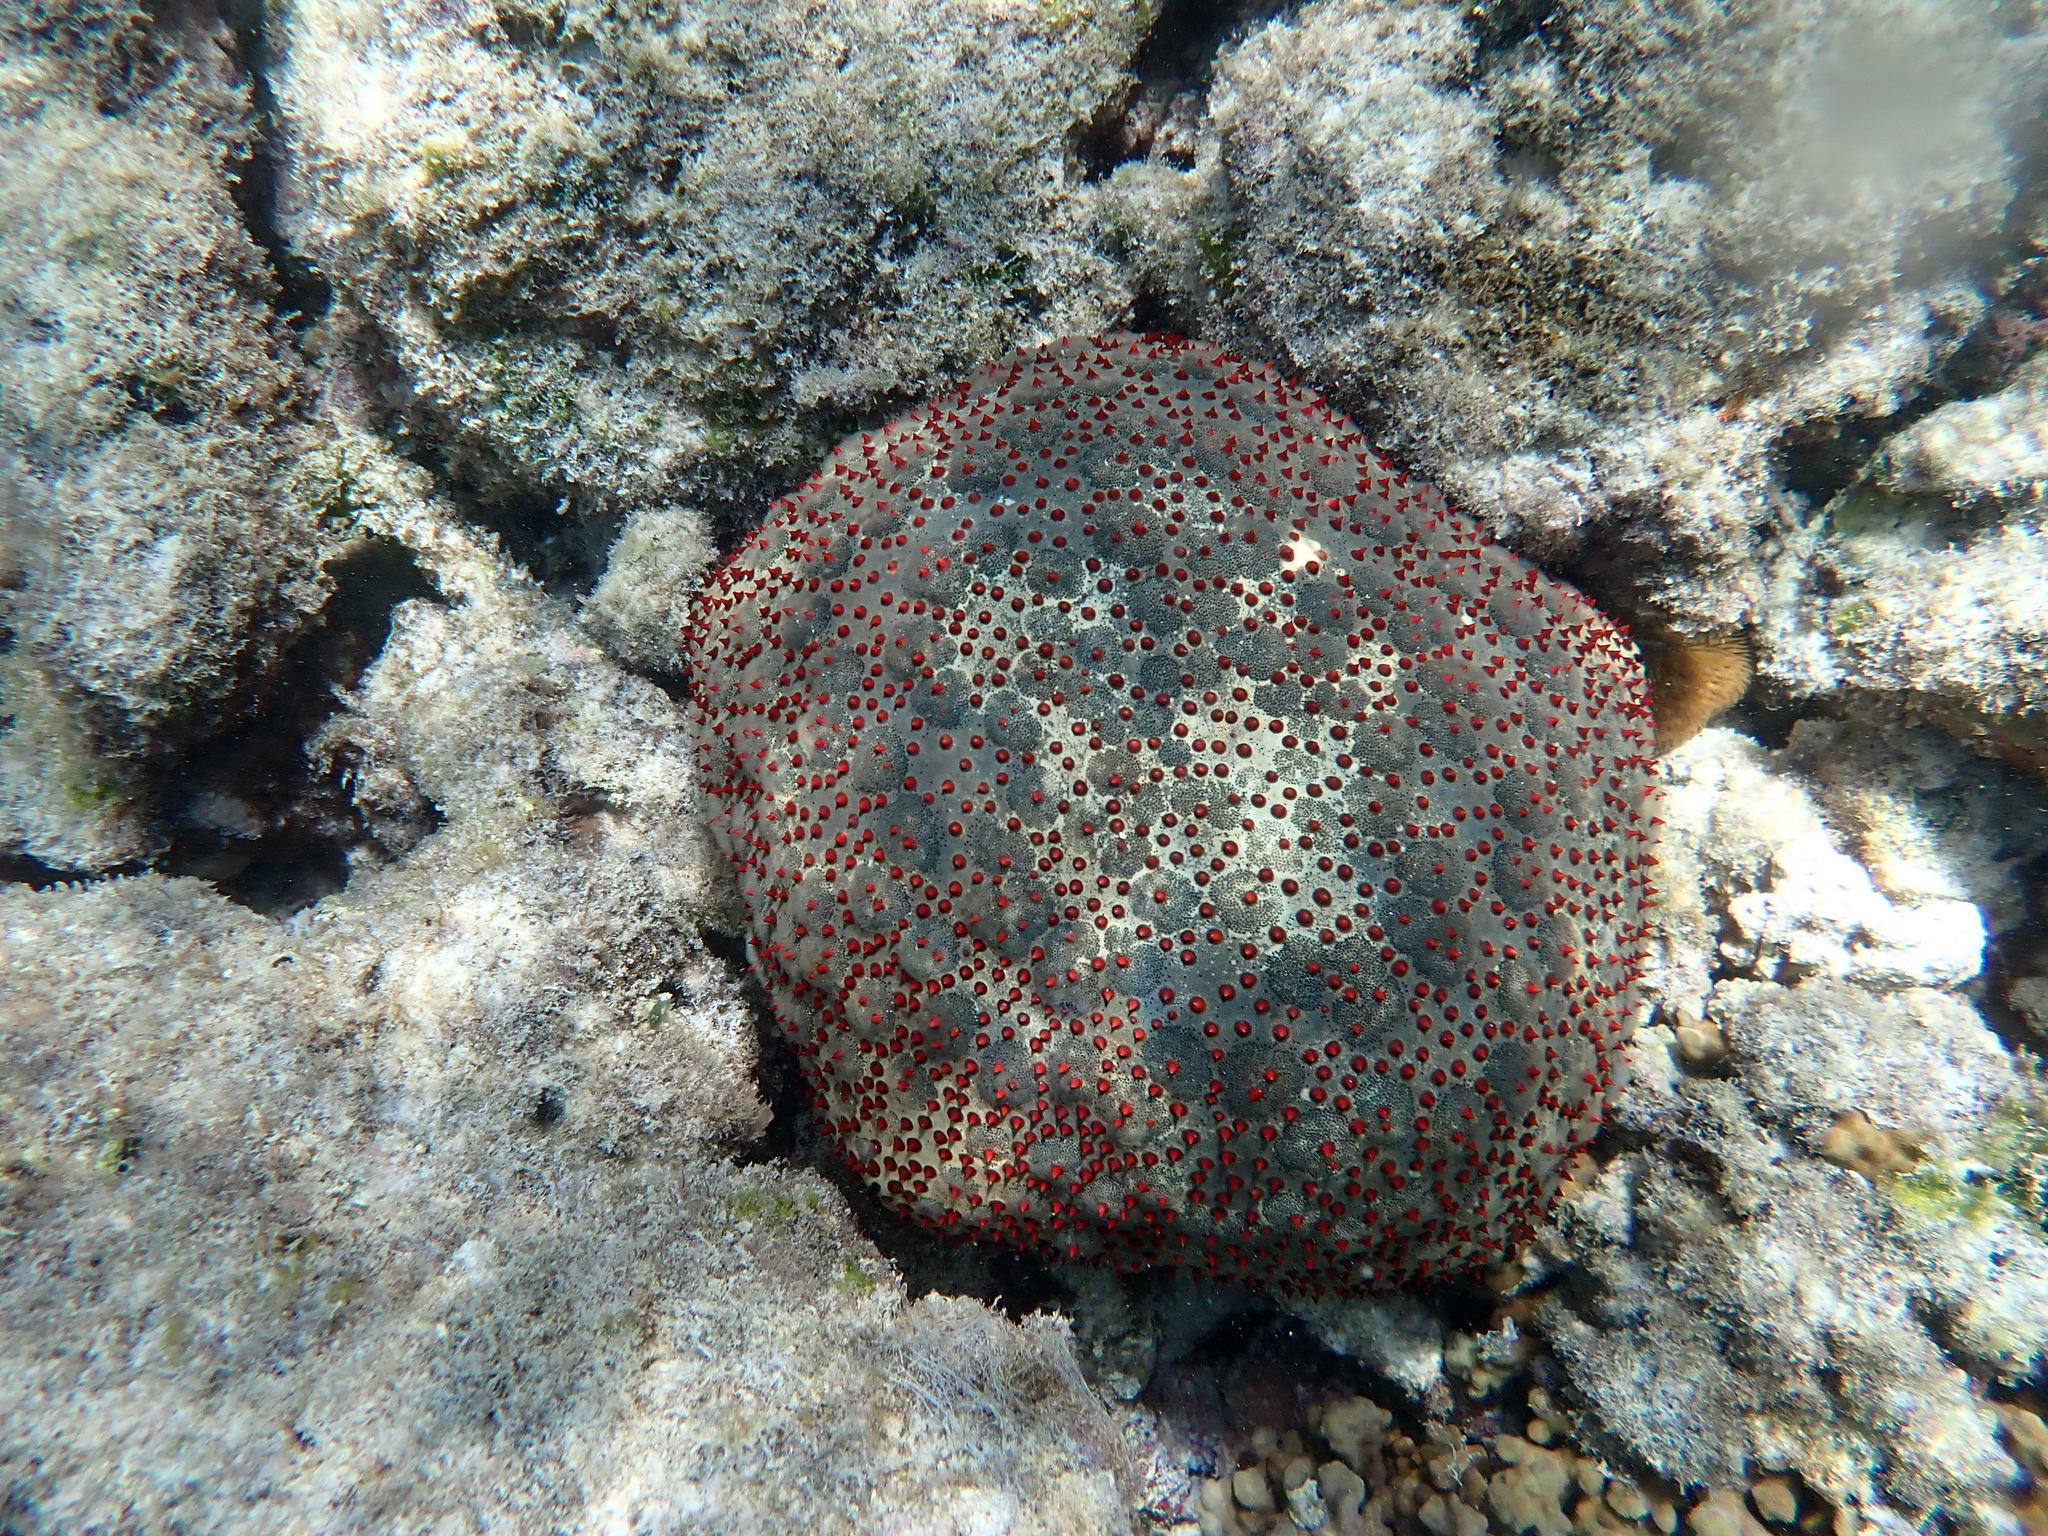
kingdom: Animalia
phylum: Echinodermata
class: Asteroidea
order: Valvatida
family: Oreasteridae
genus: Culcita
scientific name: Culcita schmideliana
